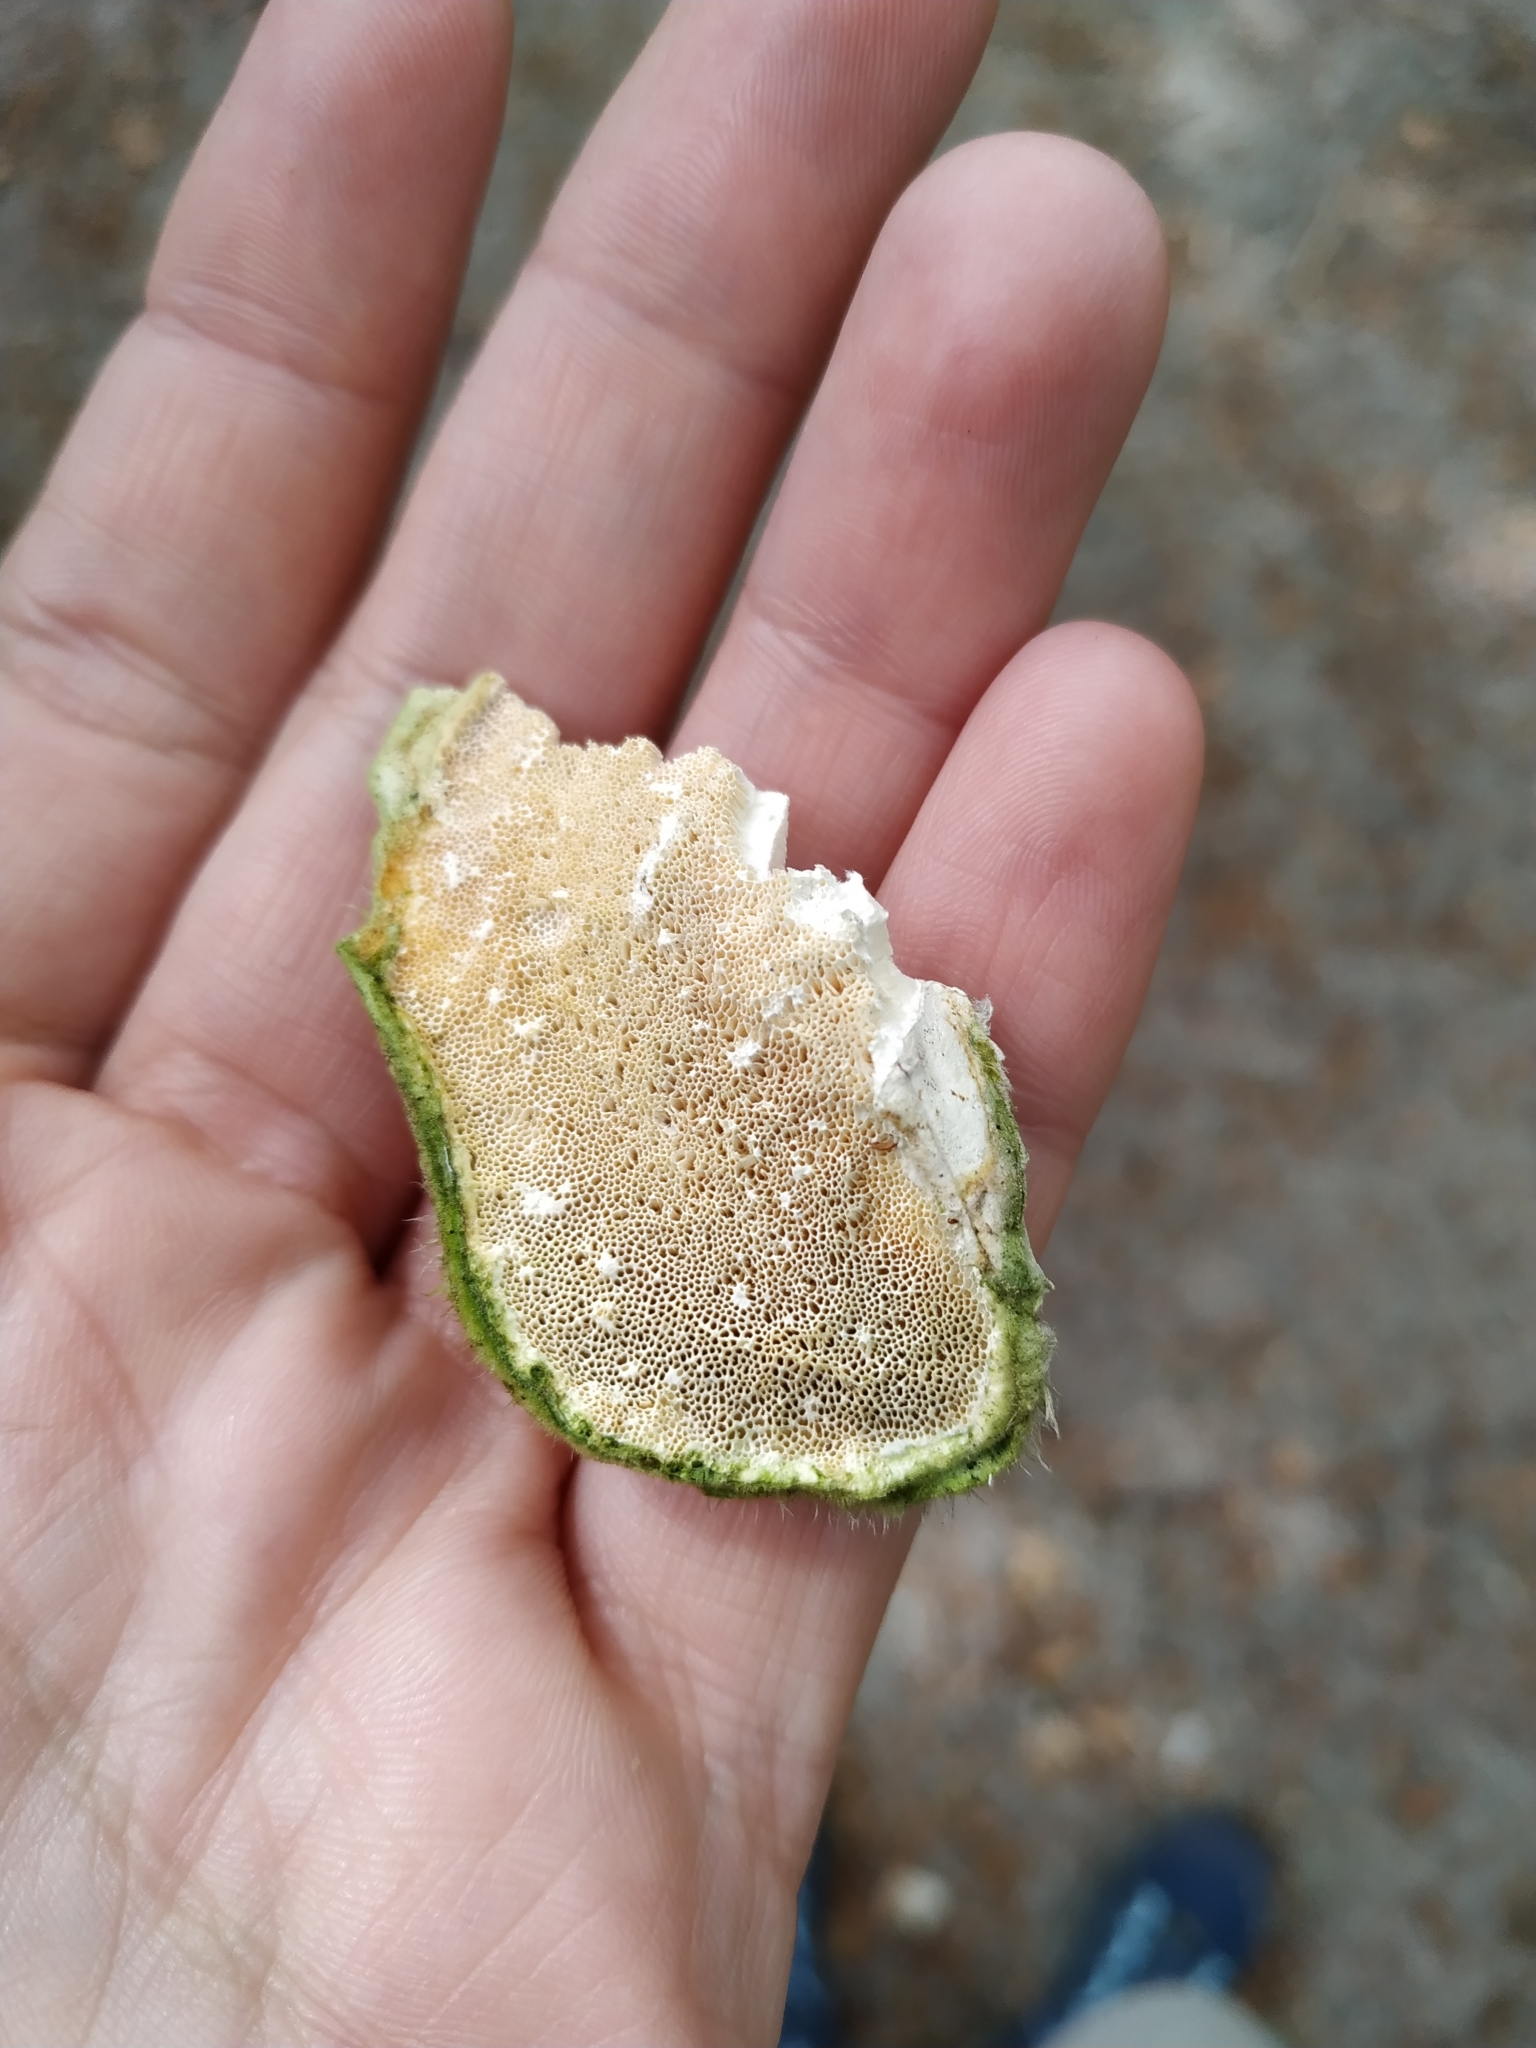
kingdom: Fungi
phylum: Basidiomycota
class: Agaricomycetes
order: Polyporales
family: Polyporaceae
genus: Trametes
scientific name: Trametes hirsuta
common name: Hairy bracket
